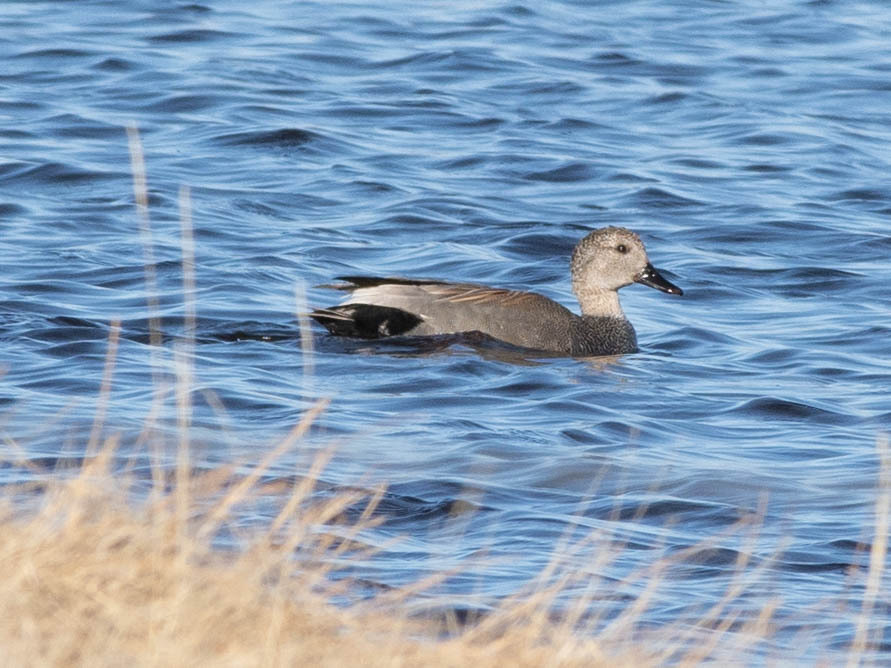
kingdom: Animalia
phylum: Chordata
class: Aves
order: Anseriformes
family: Anatidae
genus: Mareca
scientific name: Mareca strepera
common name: Gadwall
